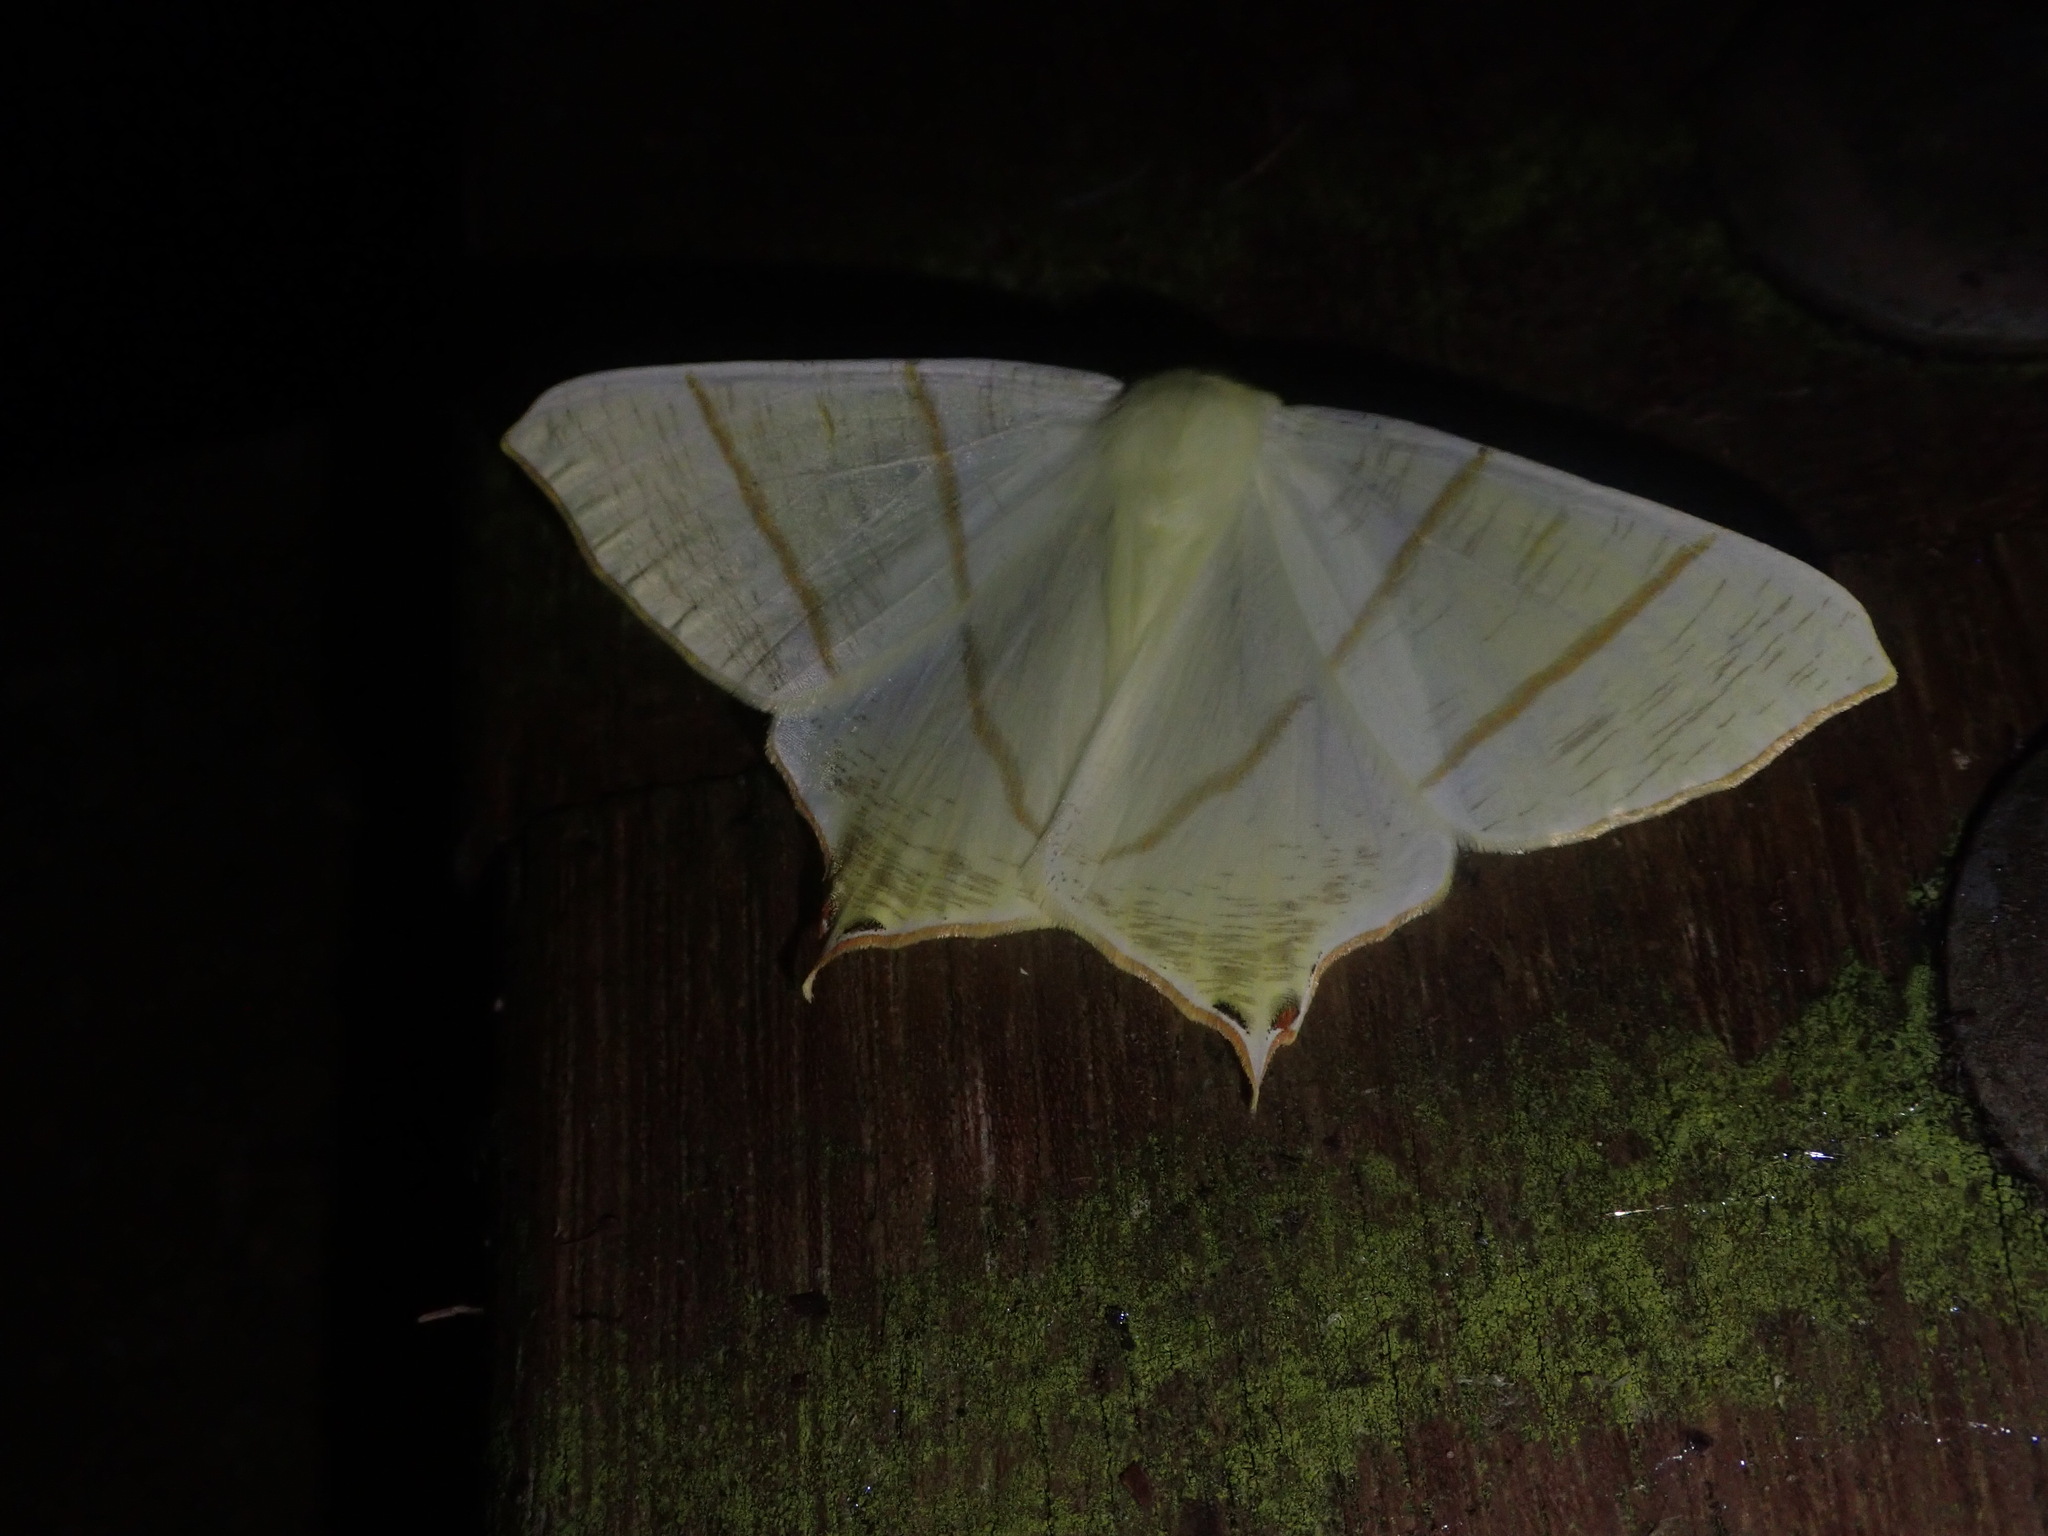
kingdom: Animalia
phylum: Arthropoda
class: Insecta
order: Lepidoptera
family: Geometridae
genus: Ourapteryx
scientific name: Ourapteryx sambucaria
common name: Swallow-tailed moth
